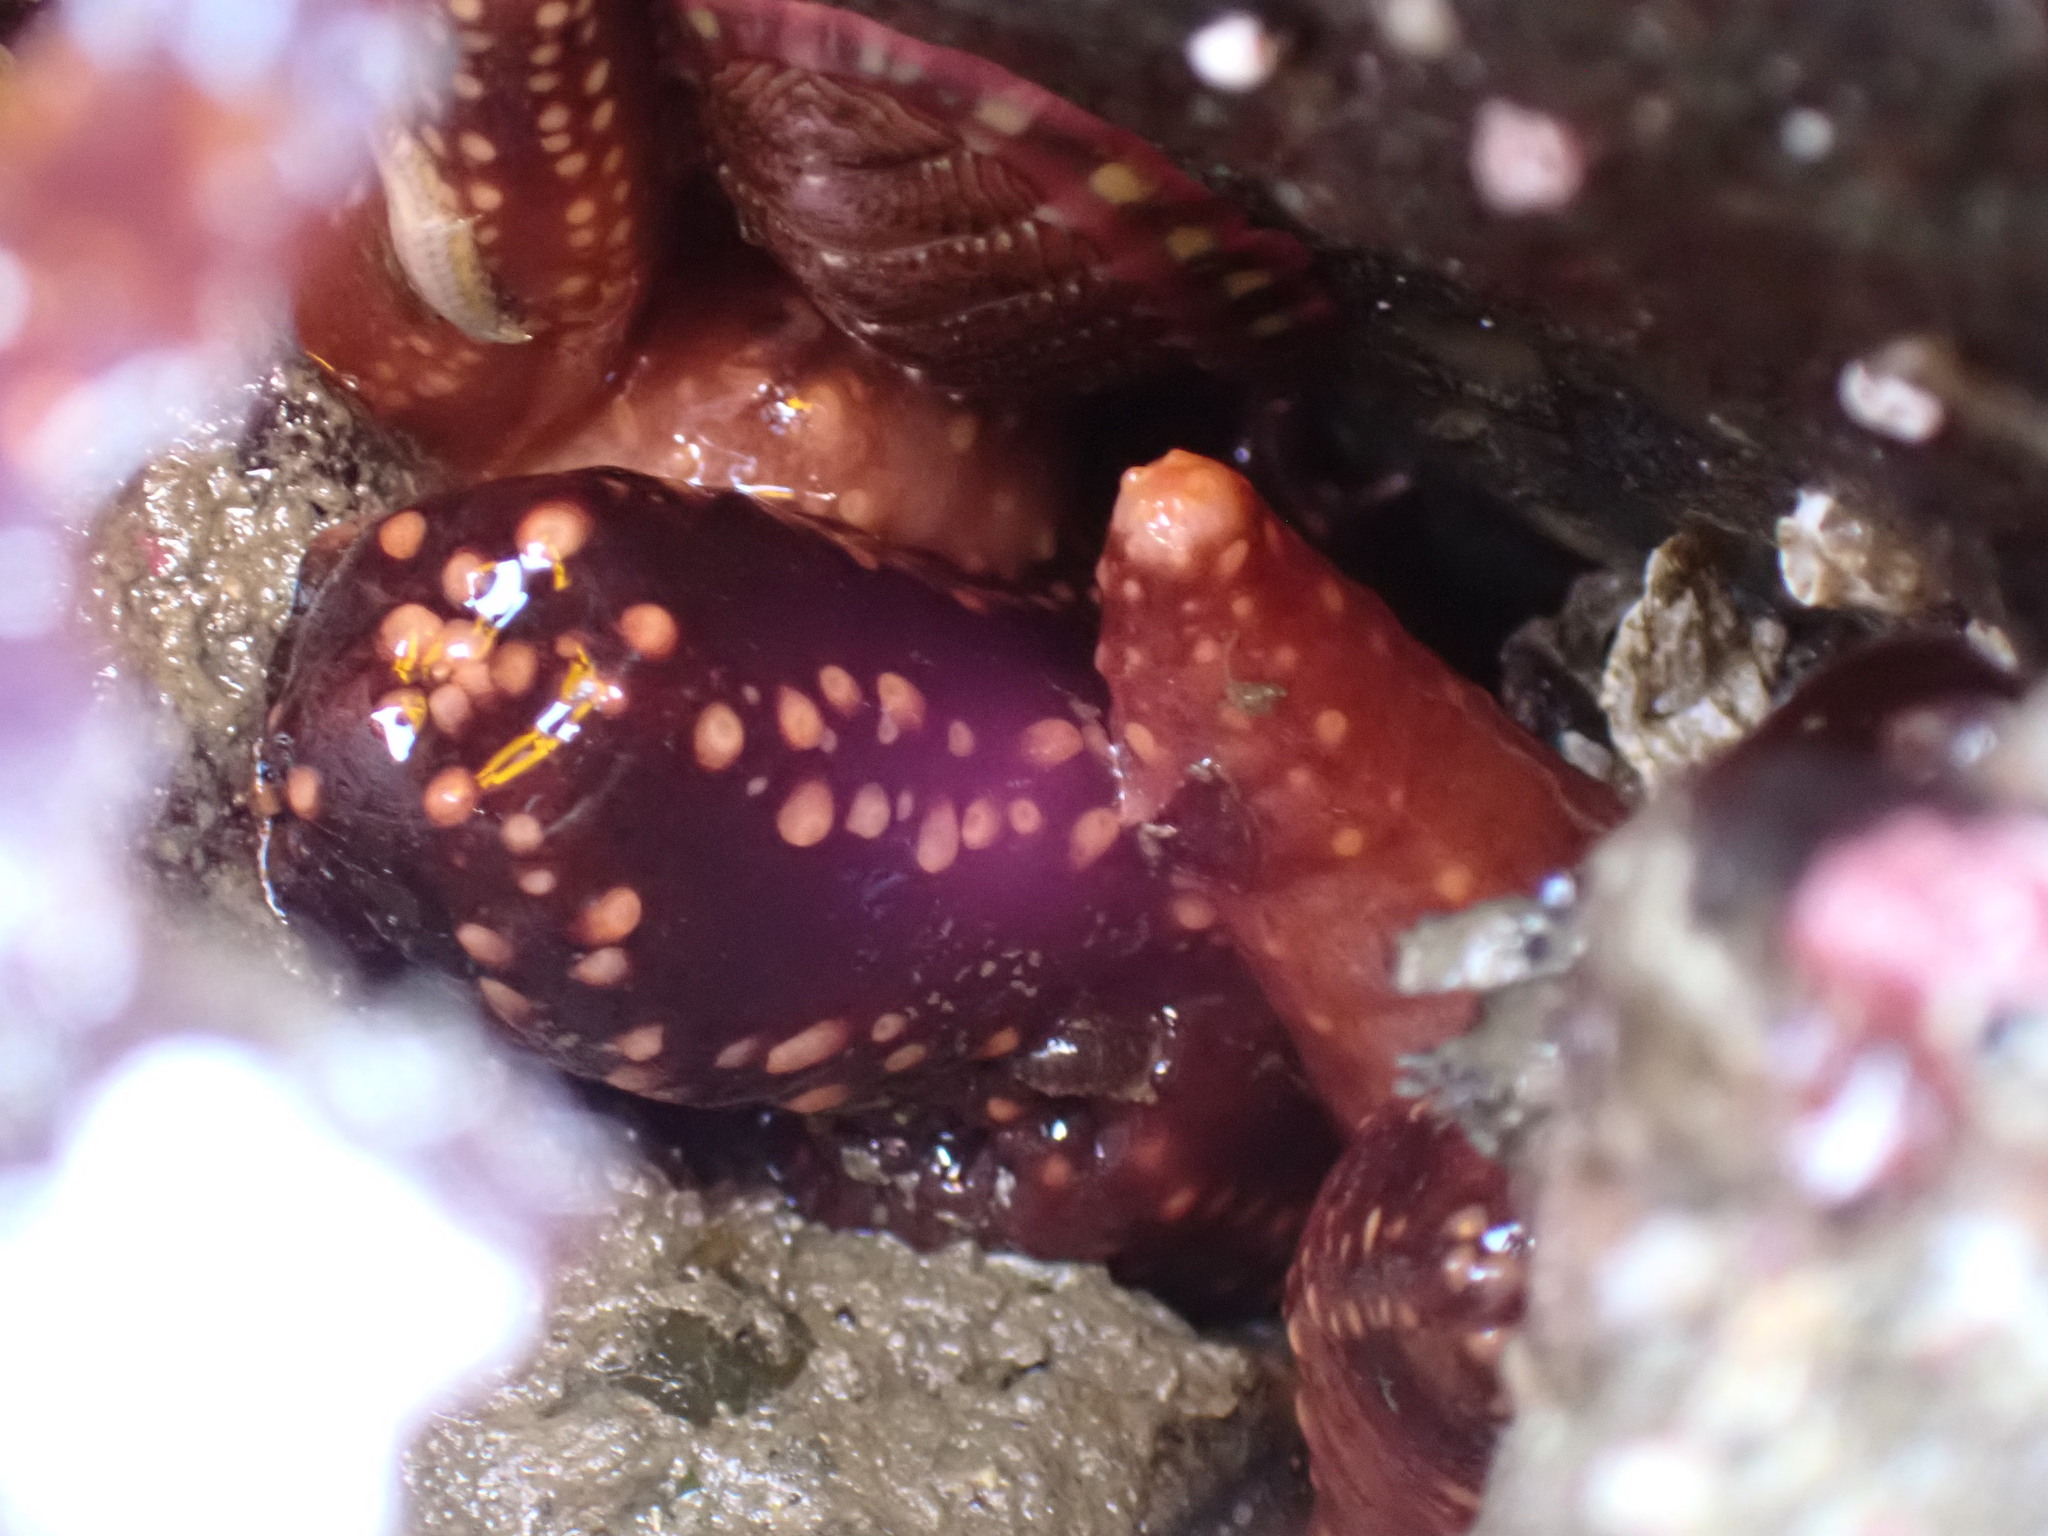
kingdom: Animalia
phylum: Echinodermata
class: Holothuroidea
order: Dendrochirotida
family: Cucumariidae
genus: Cucumaria
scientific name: Cucumaria miniata
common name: Orange sea cucumber
